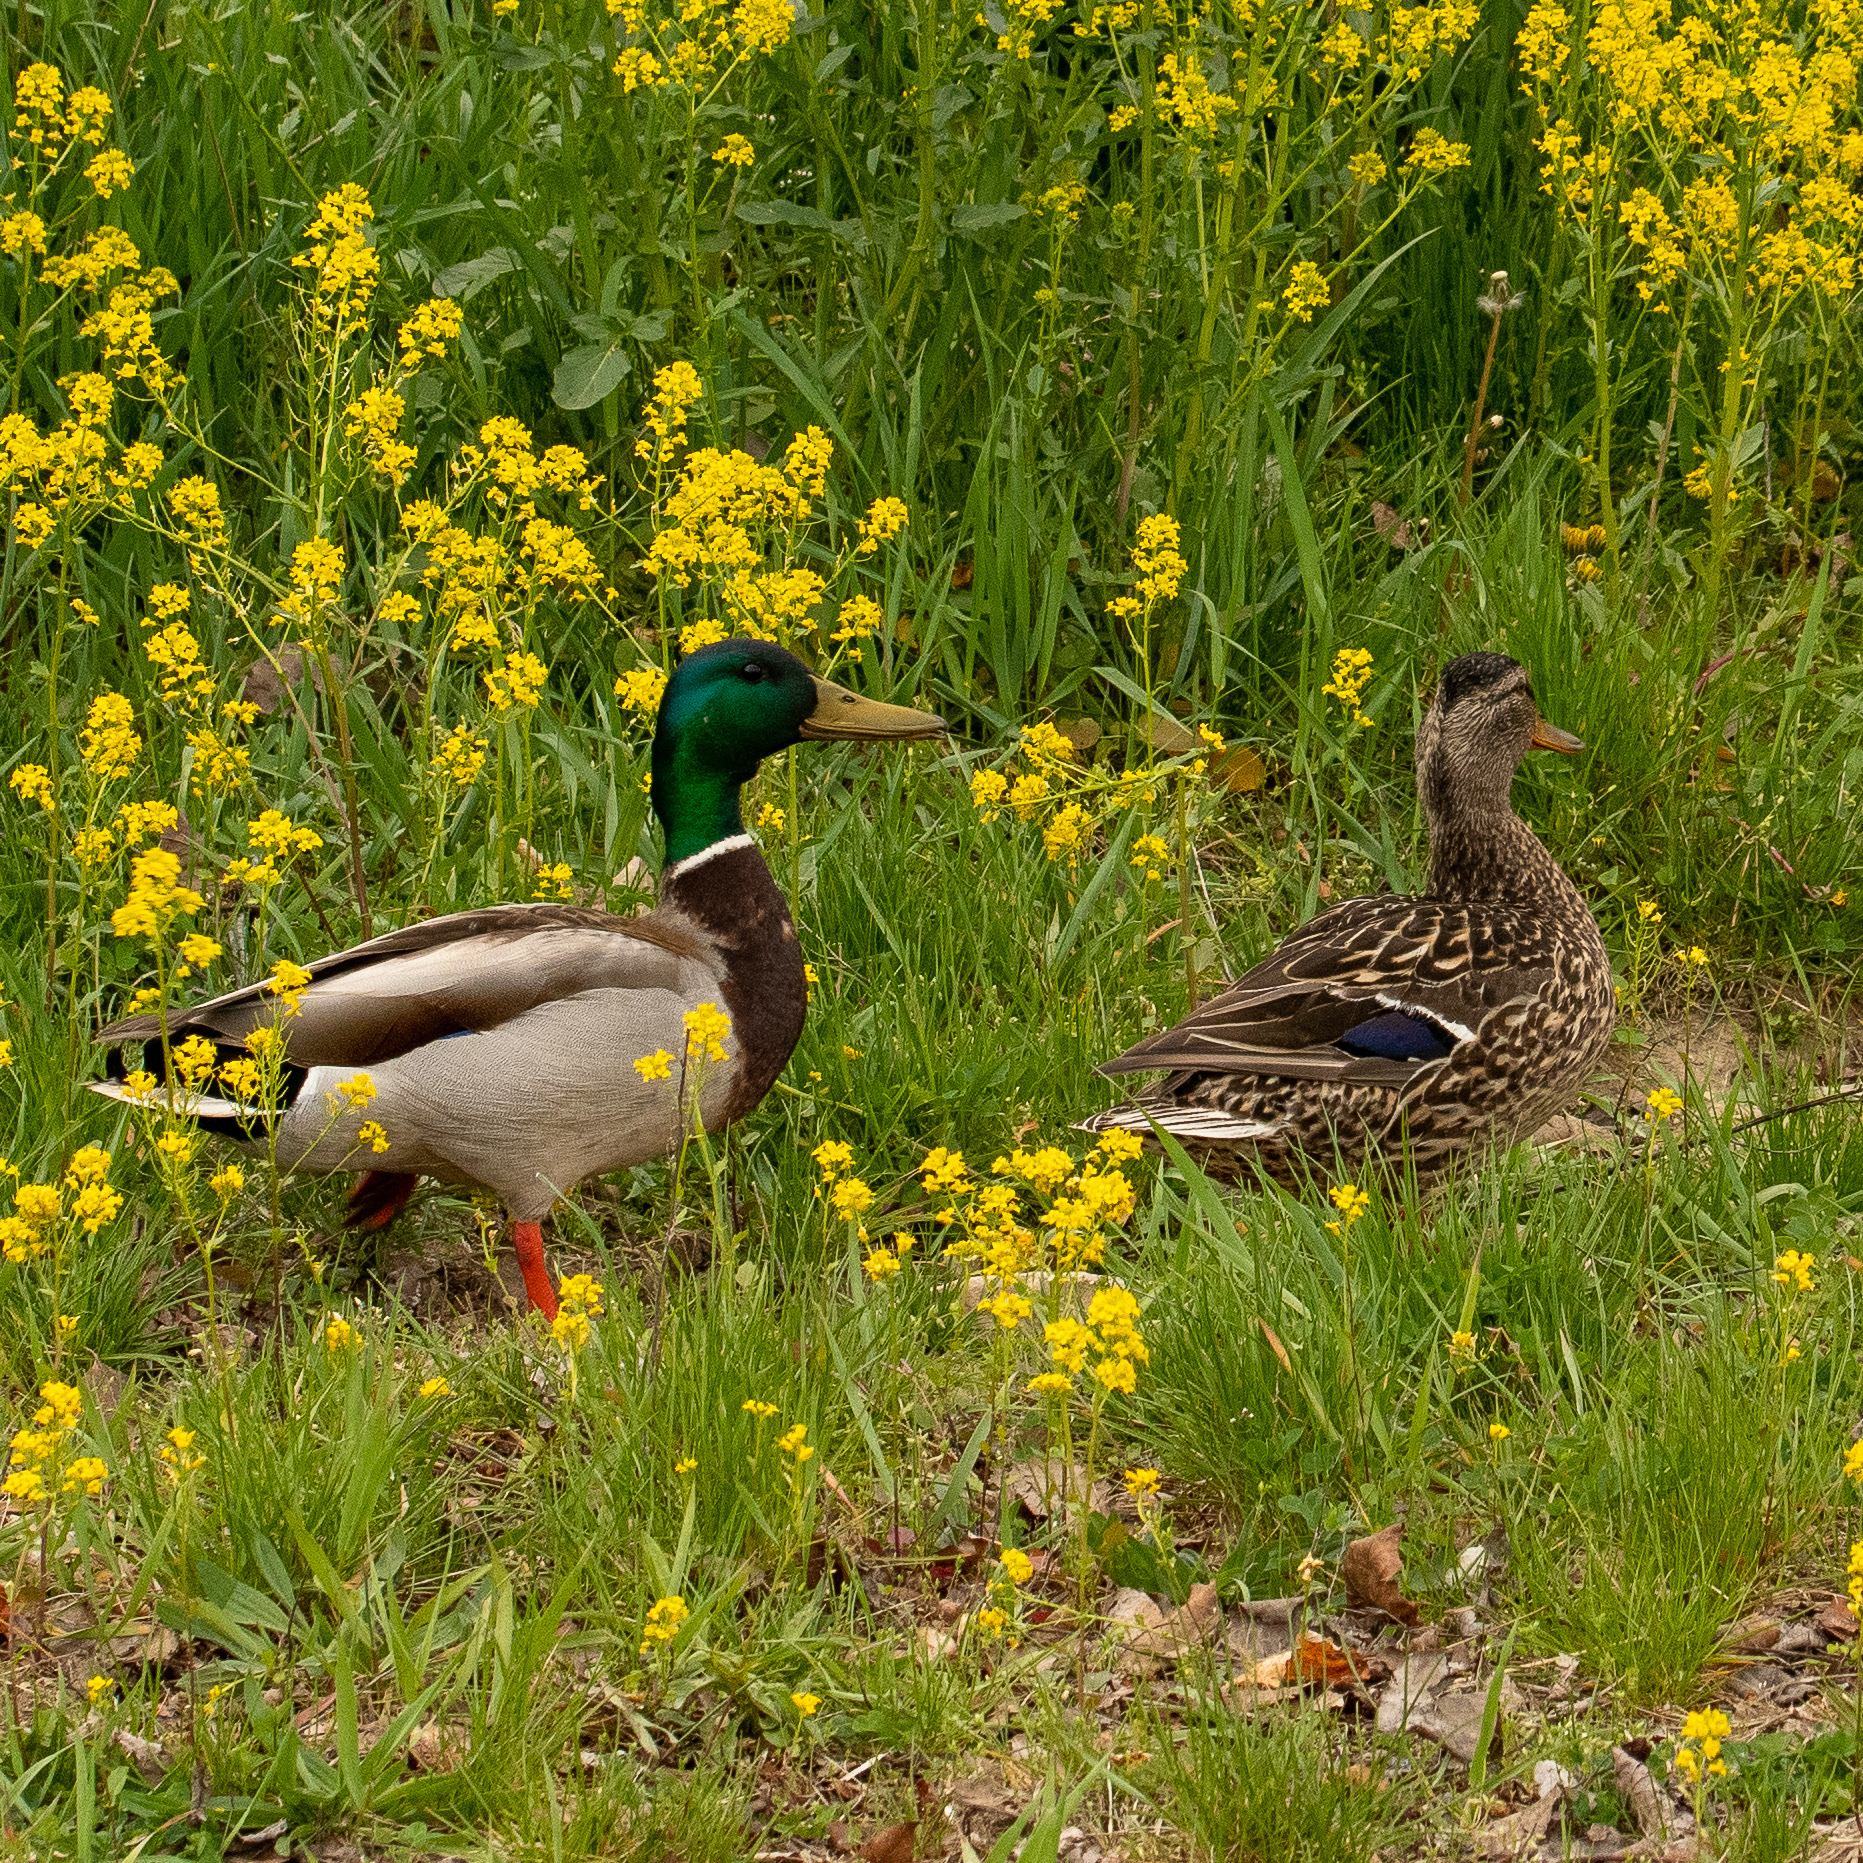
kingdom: Animalia
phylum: Chordata
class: Aves
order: Anseriformes
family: Anatidae
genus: Anas
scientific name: Anas platyrhynchos
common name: Mallard
